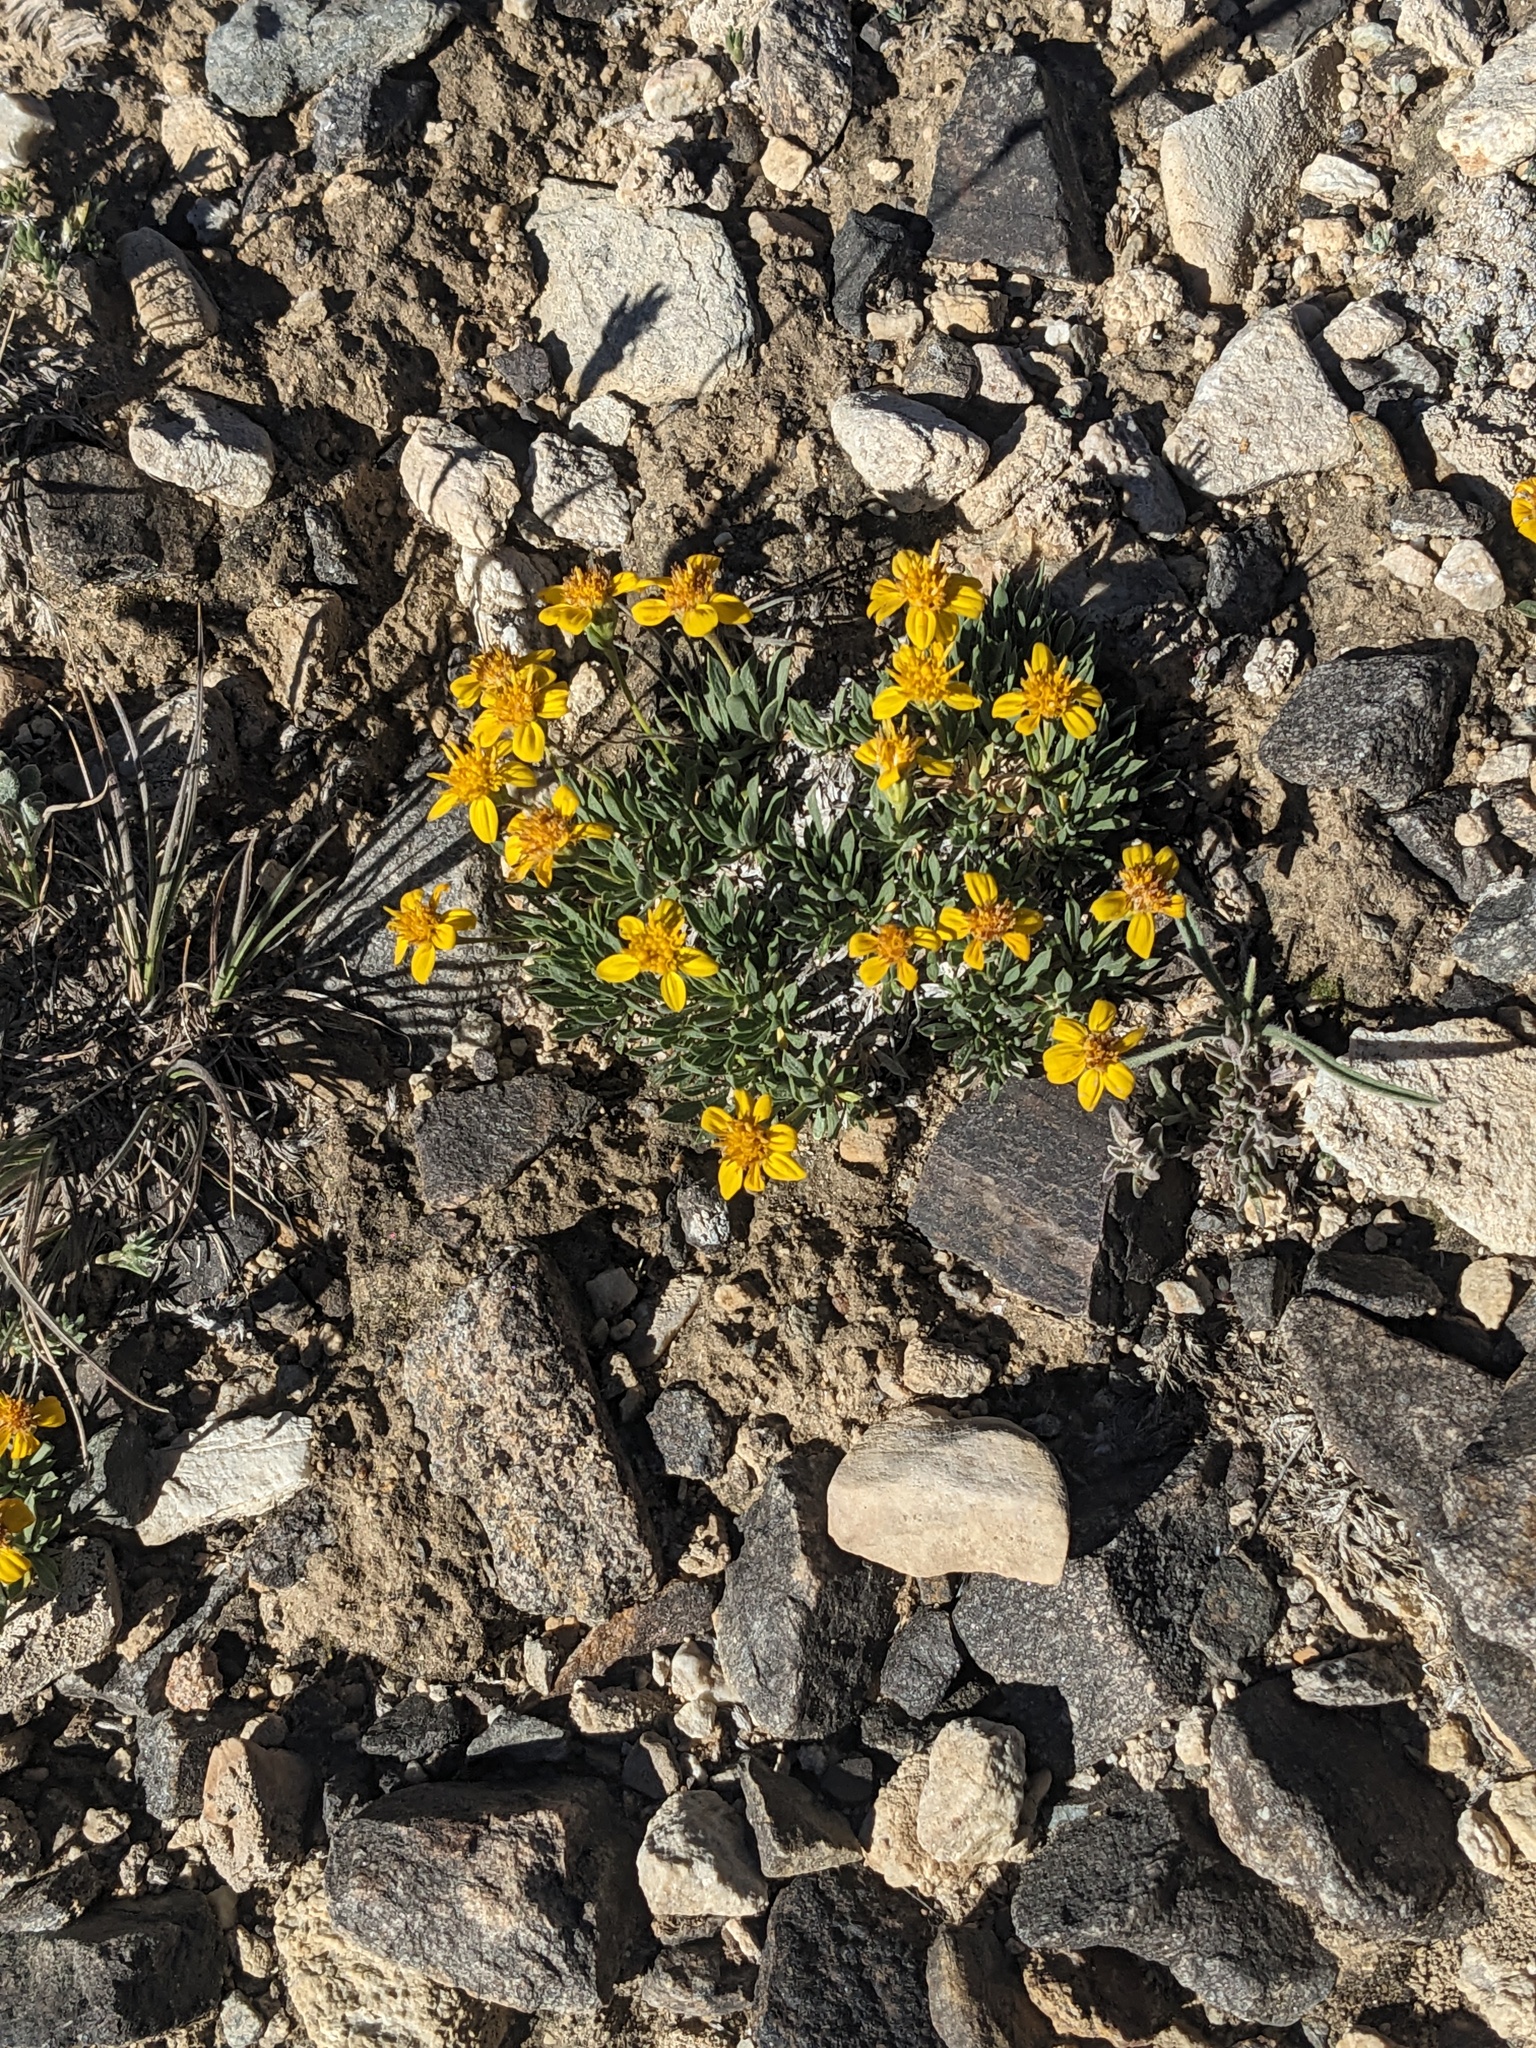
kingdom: Plantae
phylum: Tracheophyta
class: Magnoliopsida
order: Asterales
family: Asteraceae
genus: Stenotus
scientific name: Stenotus acaulis
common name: Stemless goldenweed
